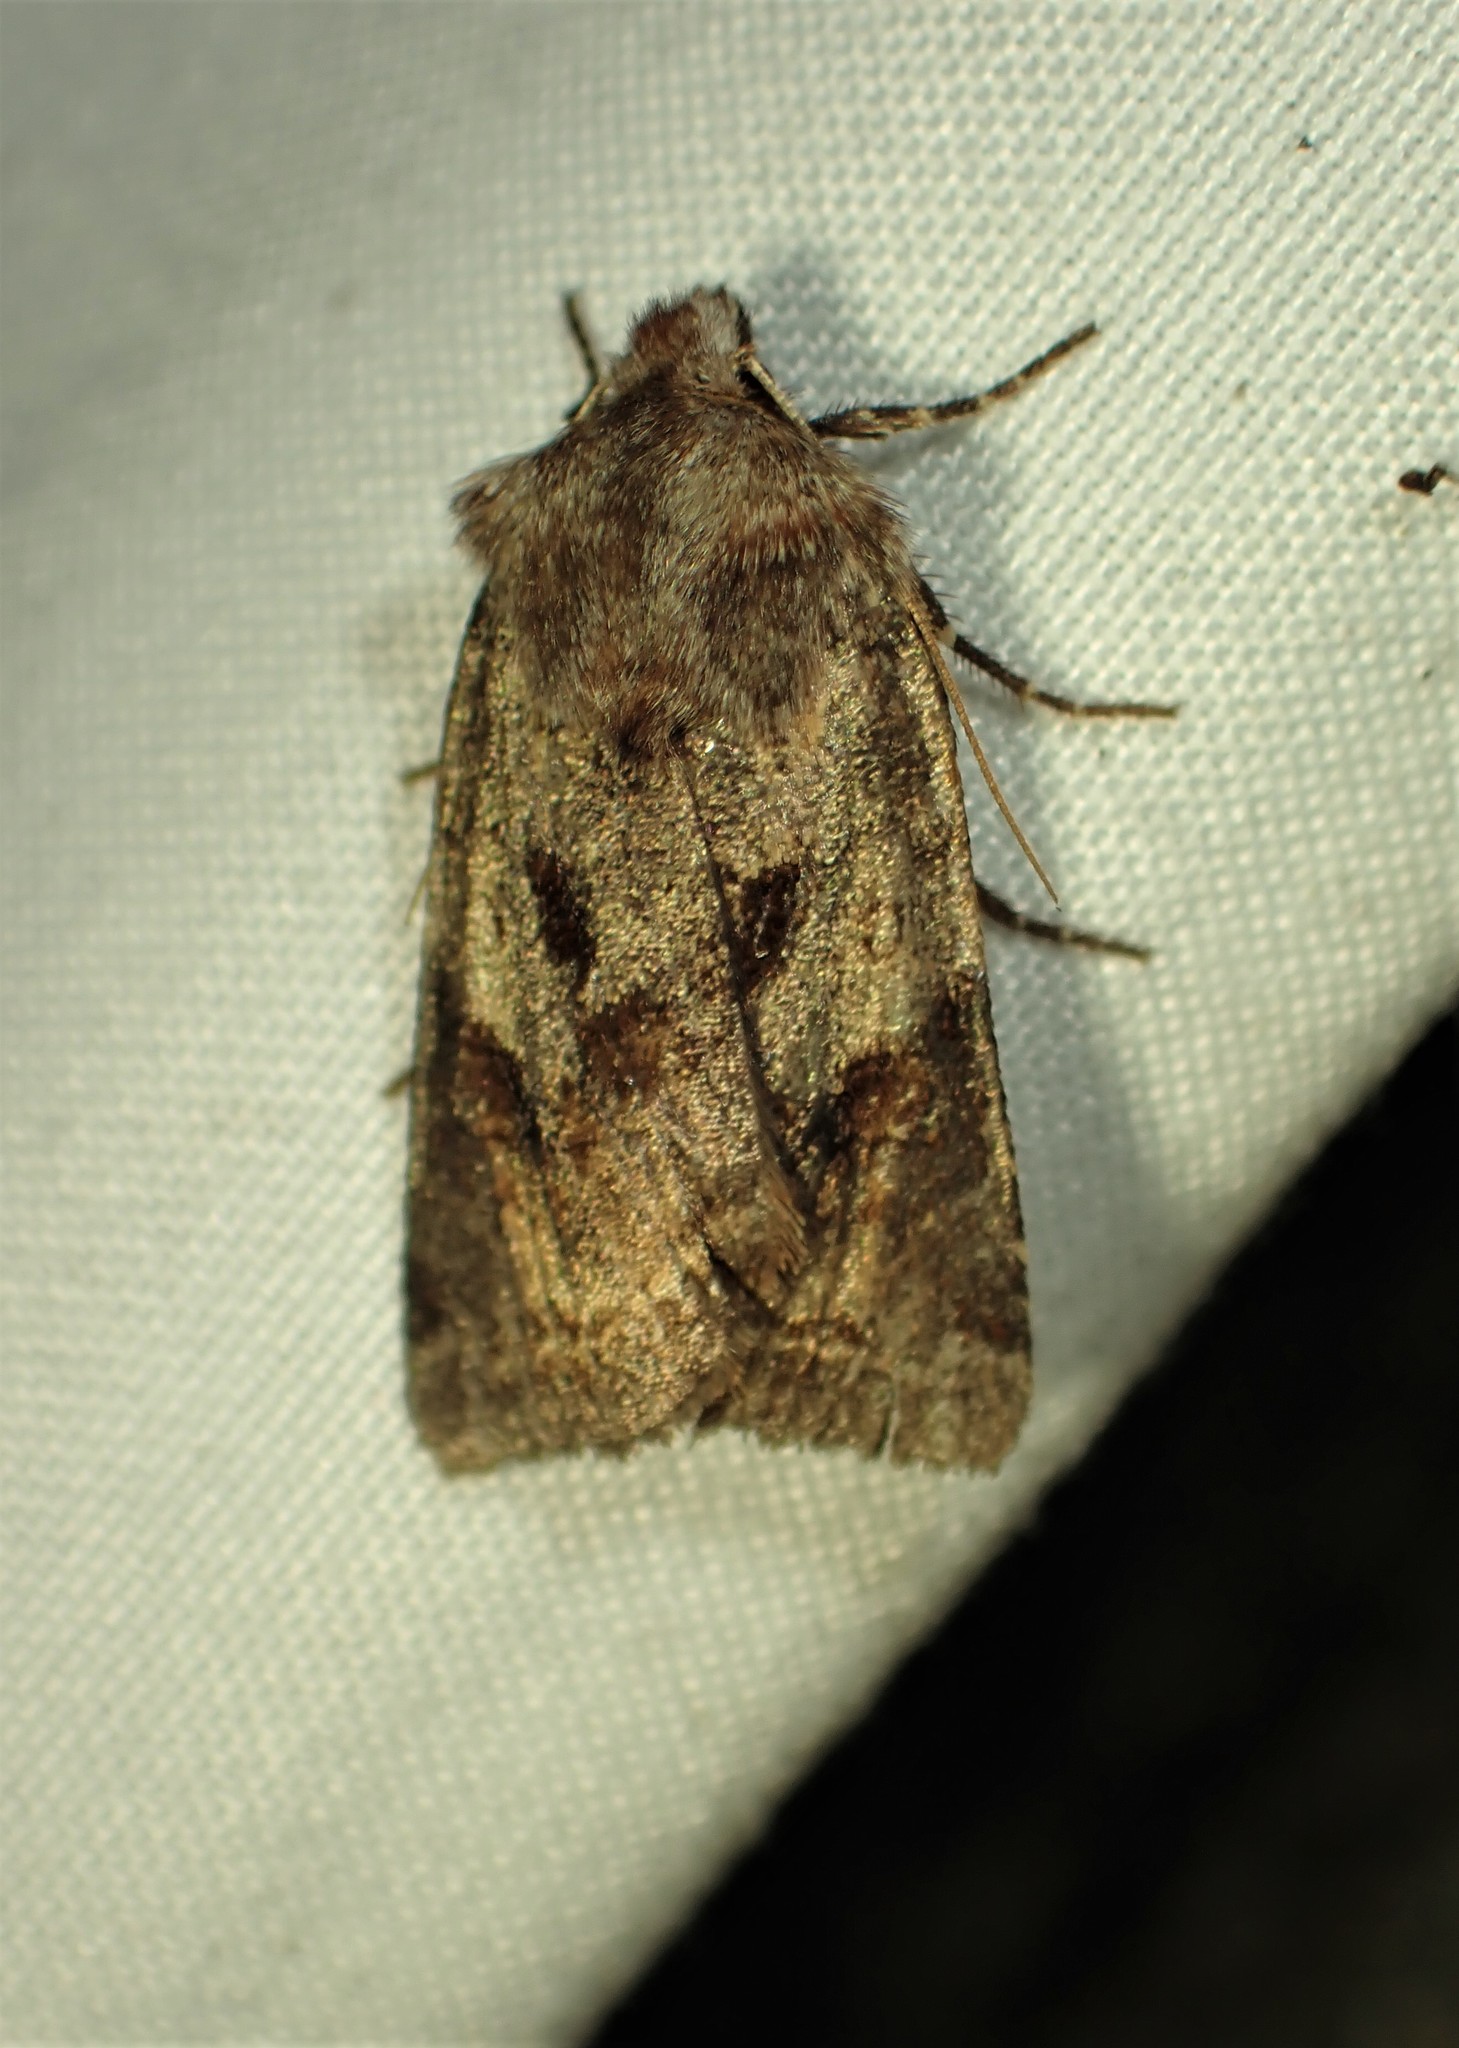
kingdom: Animalia
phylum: Arthropoda
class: Insecta
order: Lepidoptera
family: Noctuidae
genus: Cerastis
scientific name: Cerastis salicarum
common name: Willow dart
